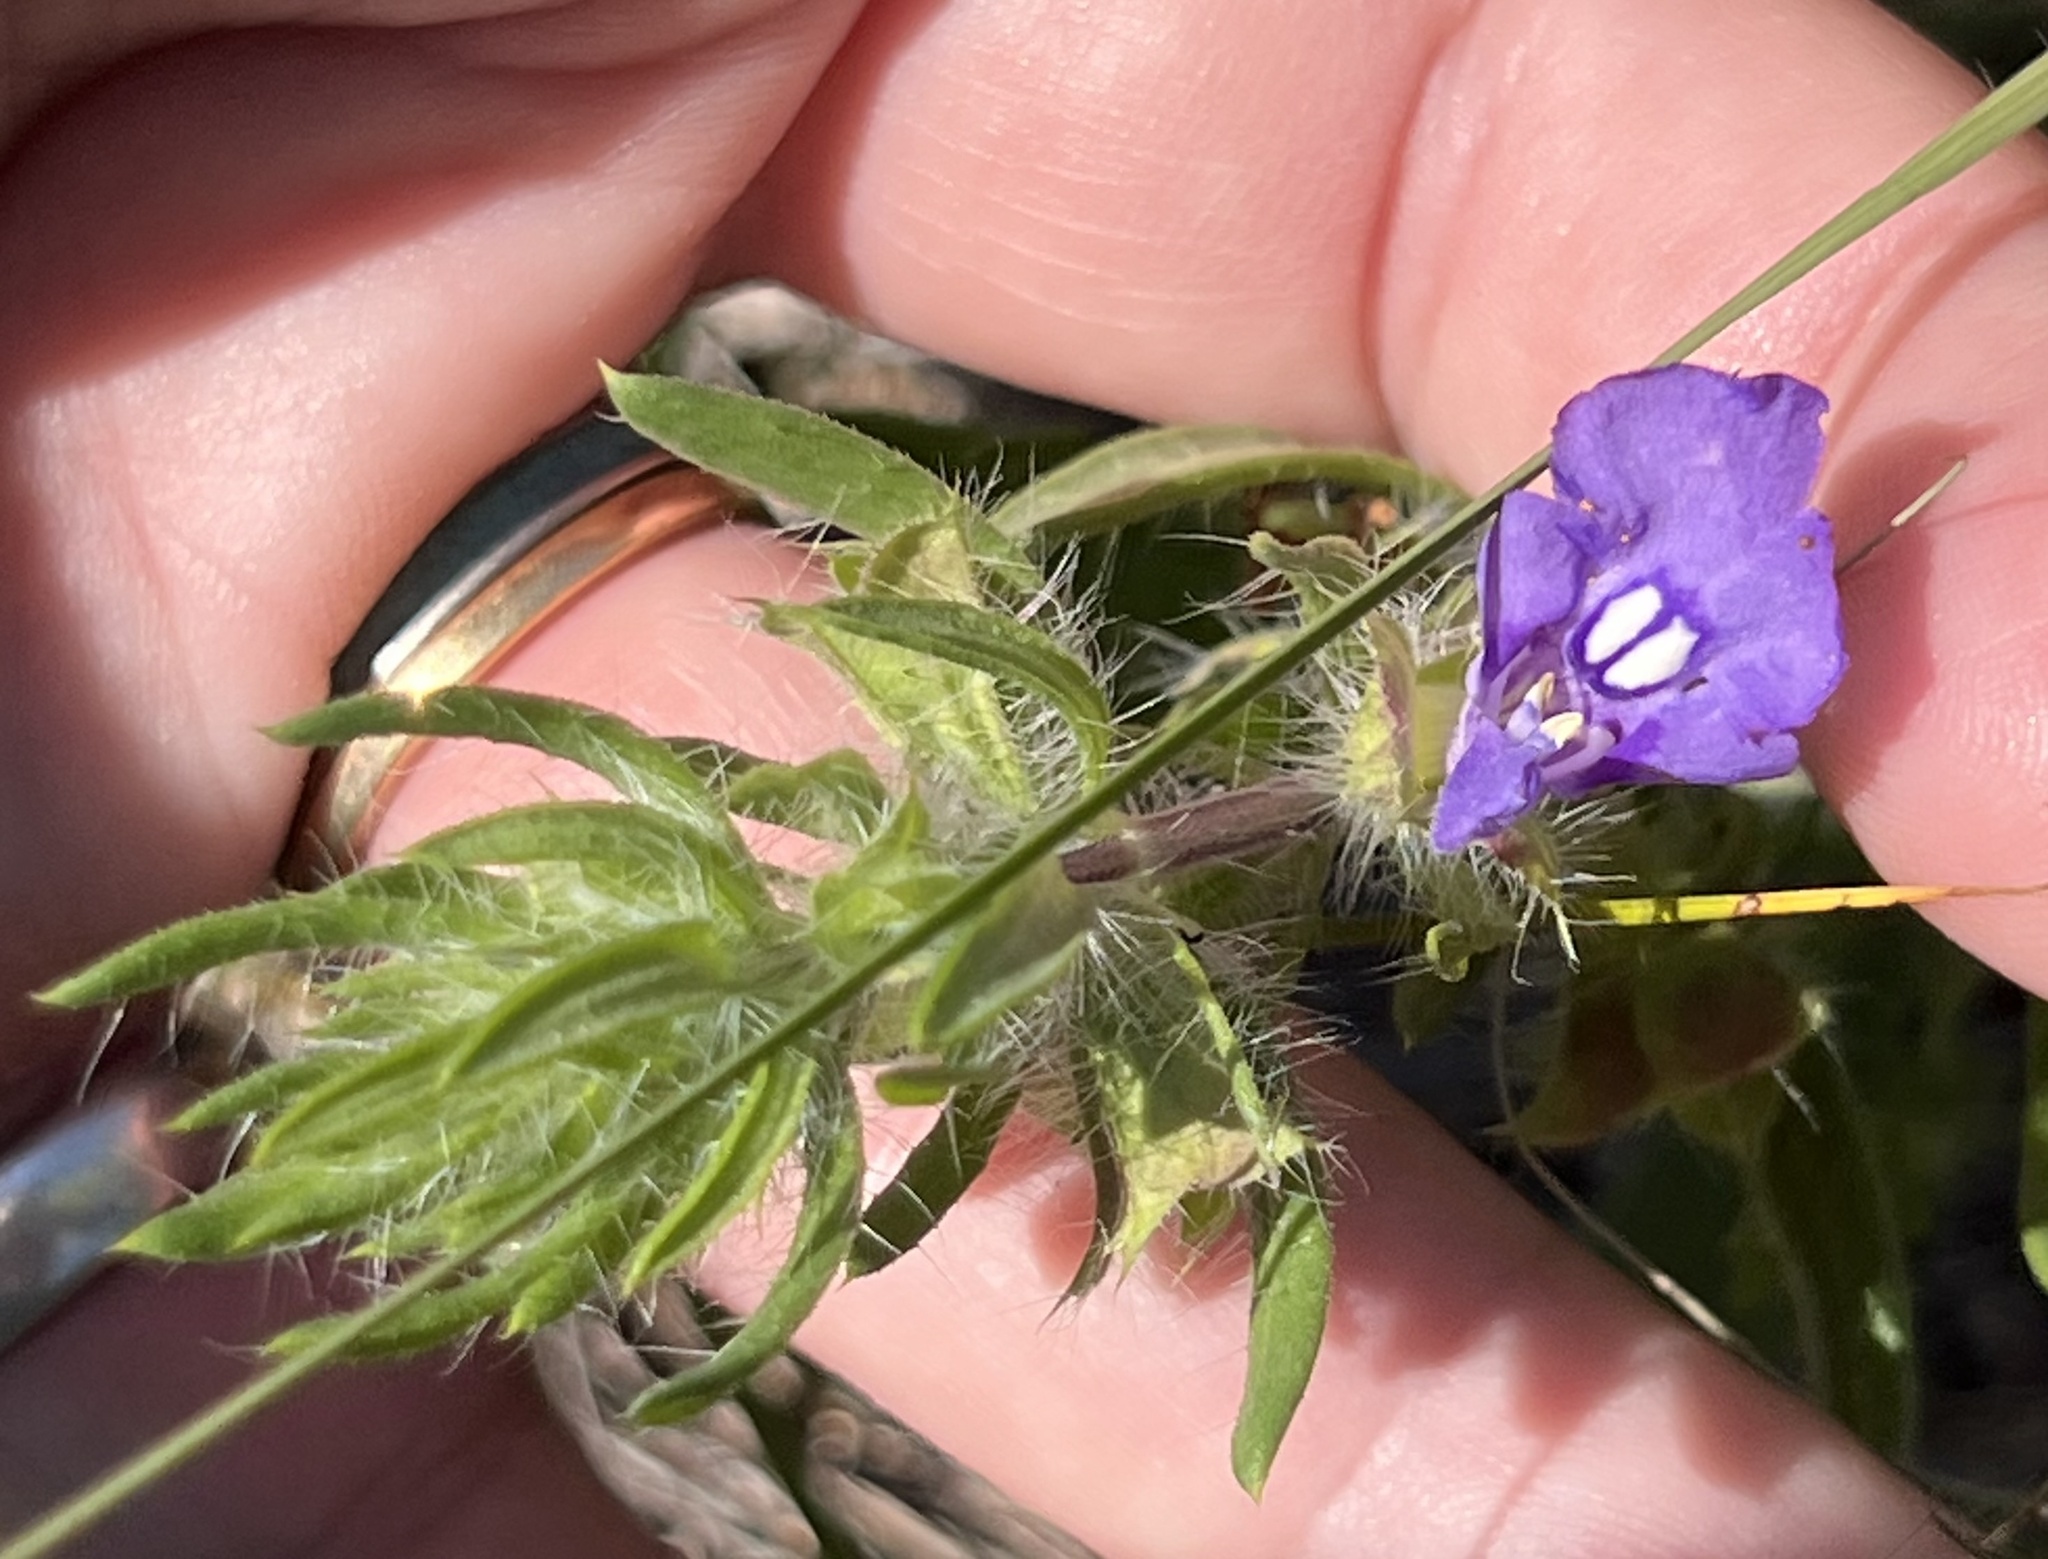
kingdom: Plantae
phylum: Tracheophyta
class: Magnoliopsida
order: Lamiales
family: Lamiaceae
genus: Salvia
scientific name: Salvia texana
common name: Texas sage
